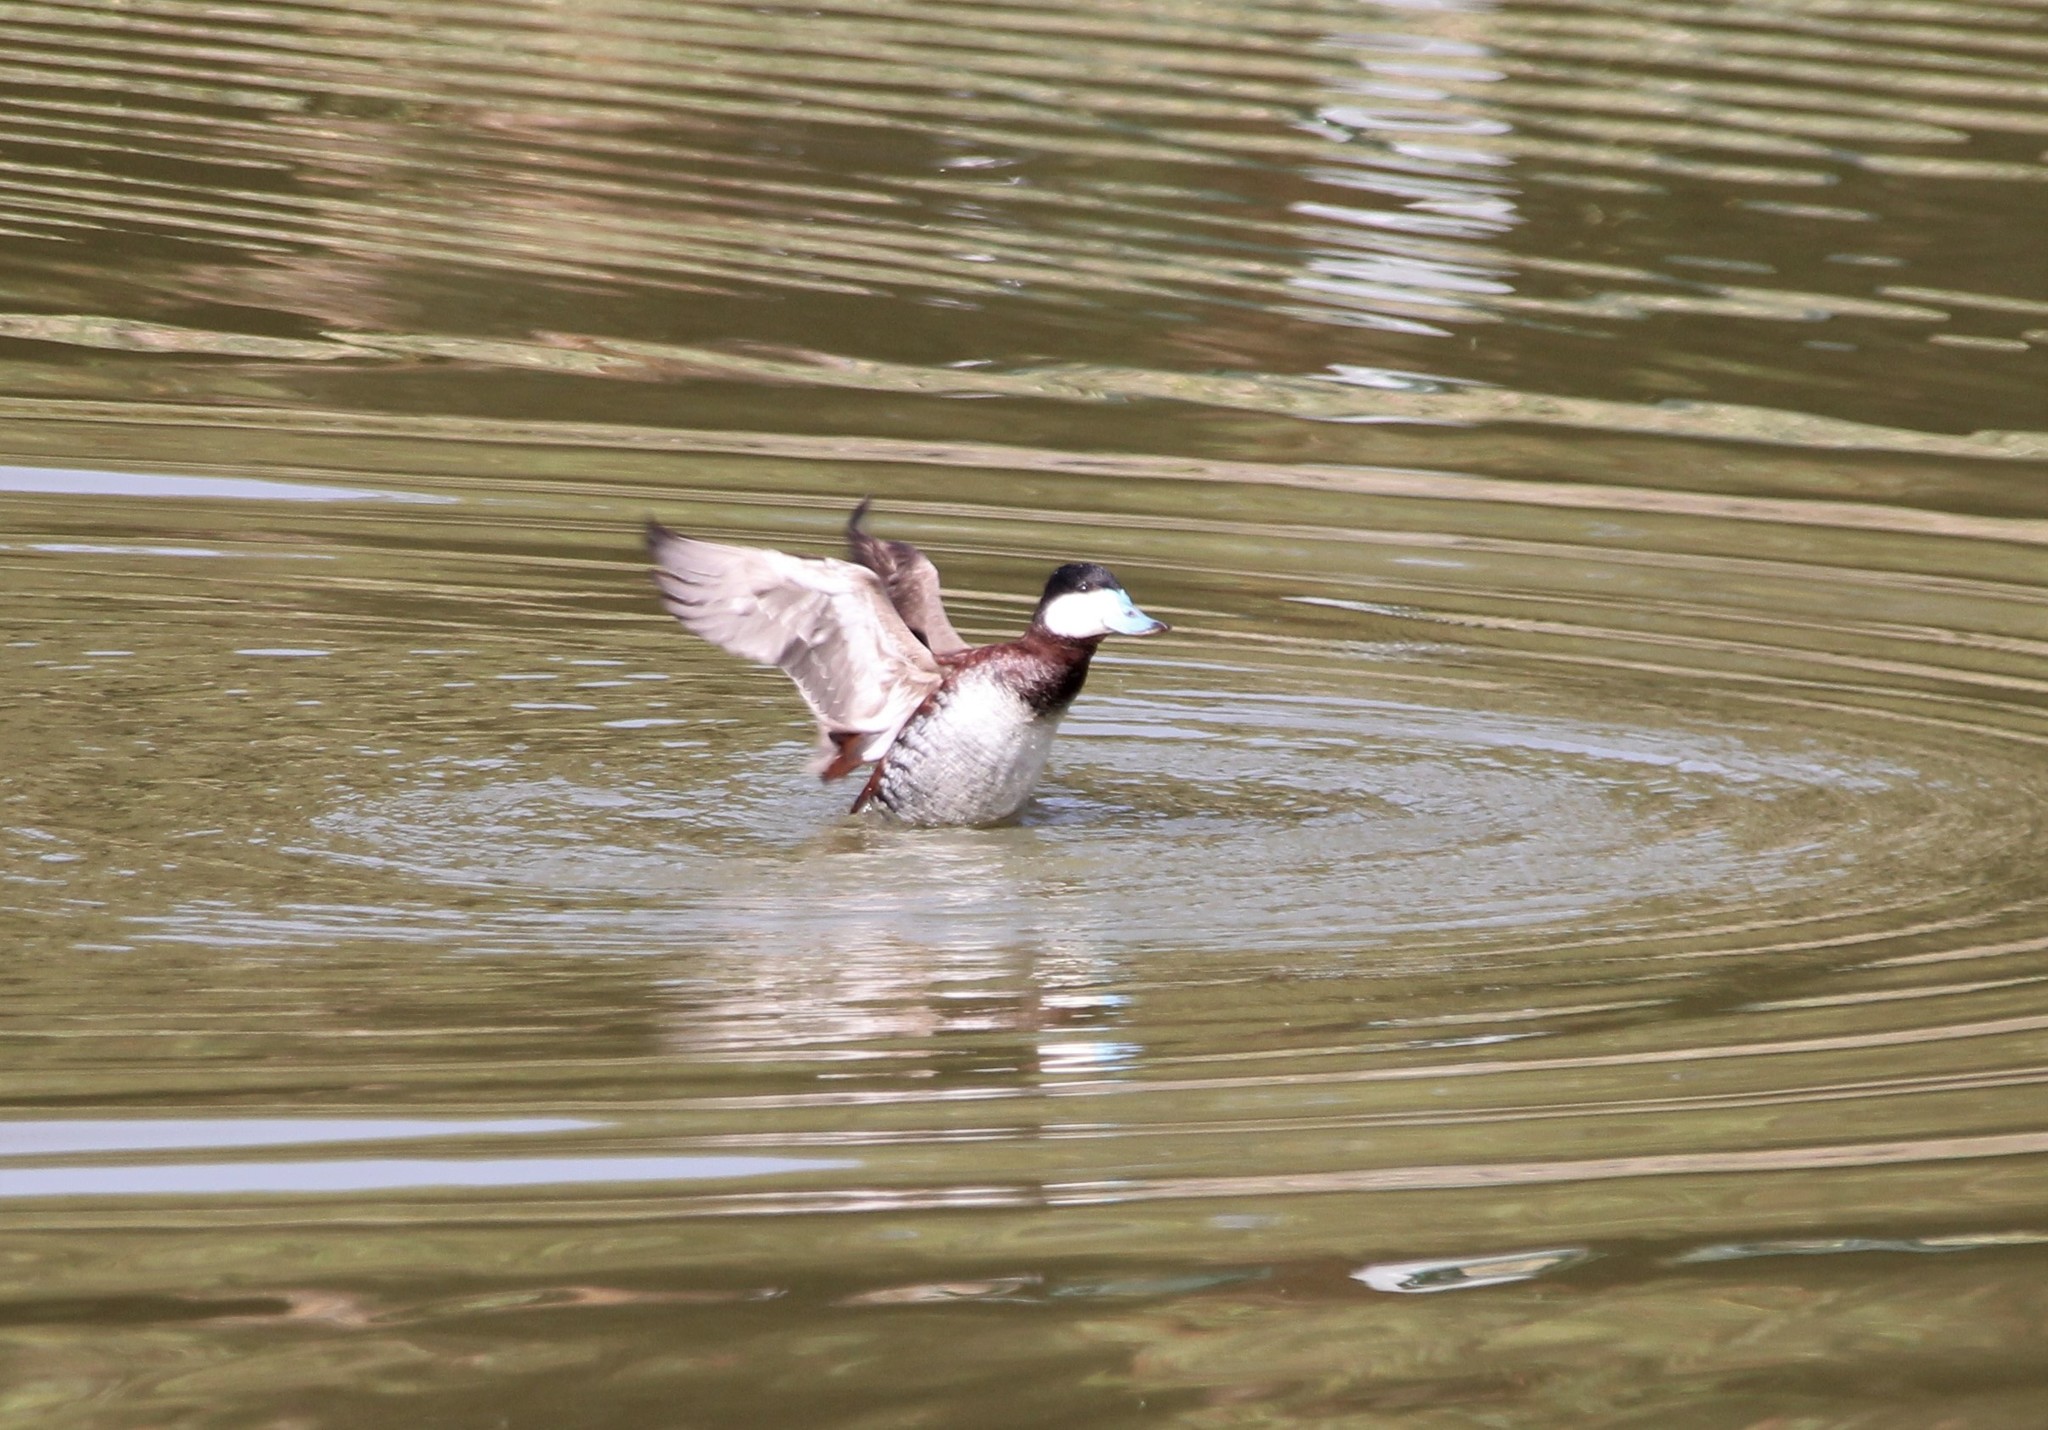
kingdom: Animalia
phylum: Chordata
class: Aves
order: Anseriformes
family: Anatidae
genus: Oxyura
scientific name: Oxyura jamaicensis
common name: Ruddy duck
